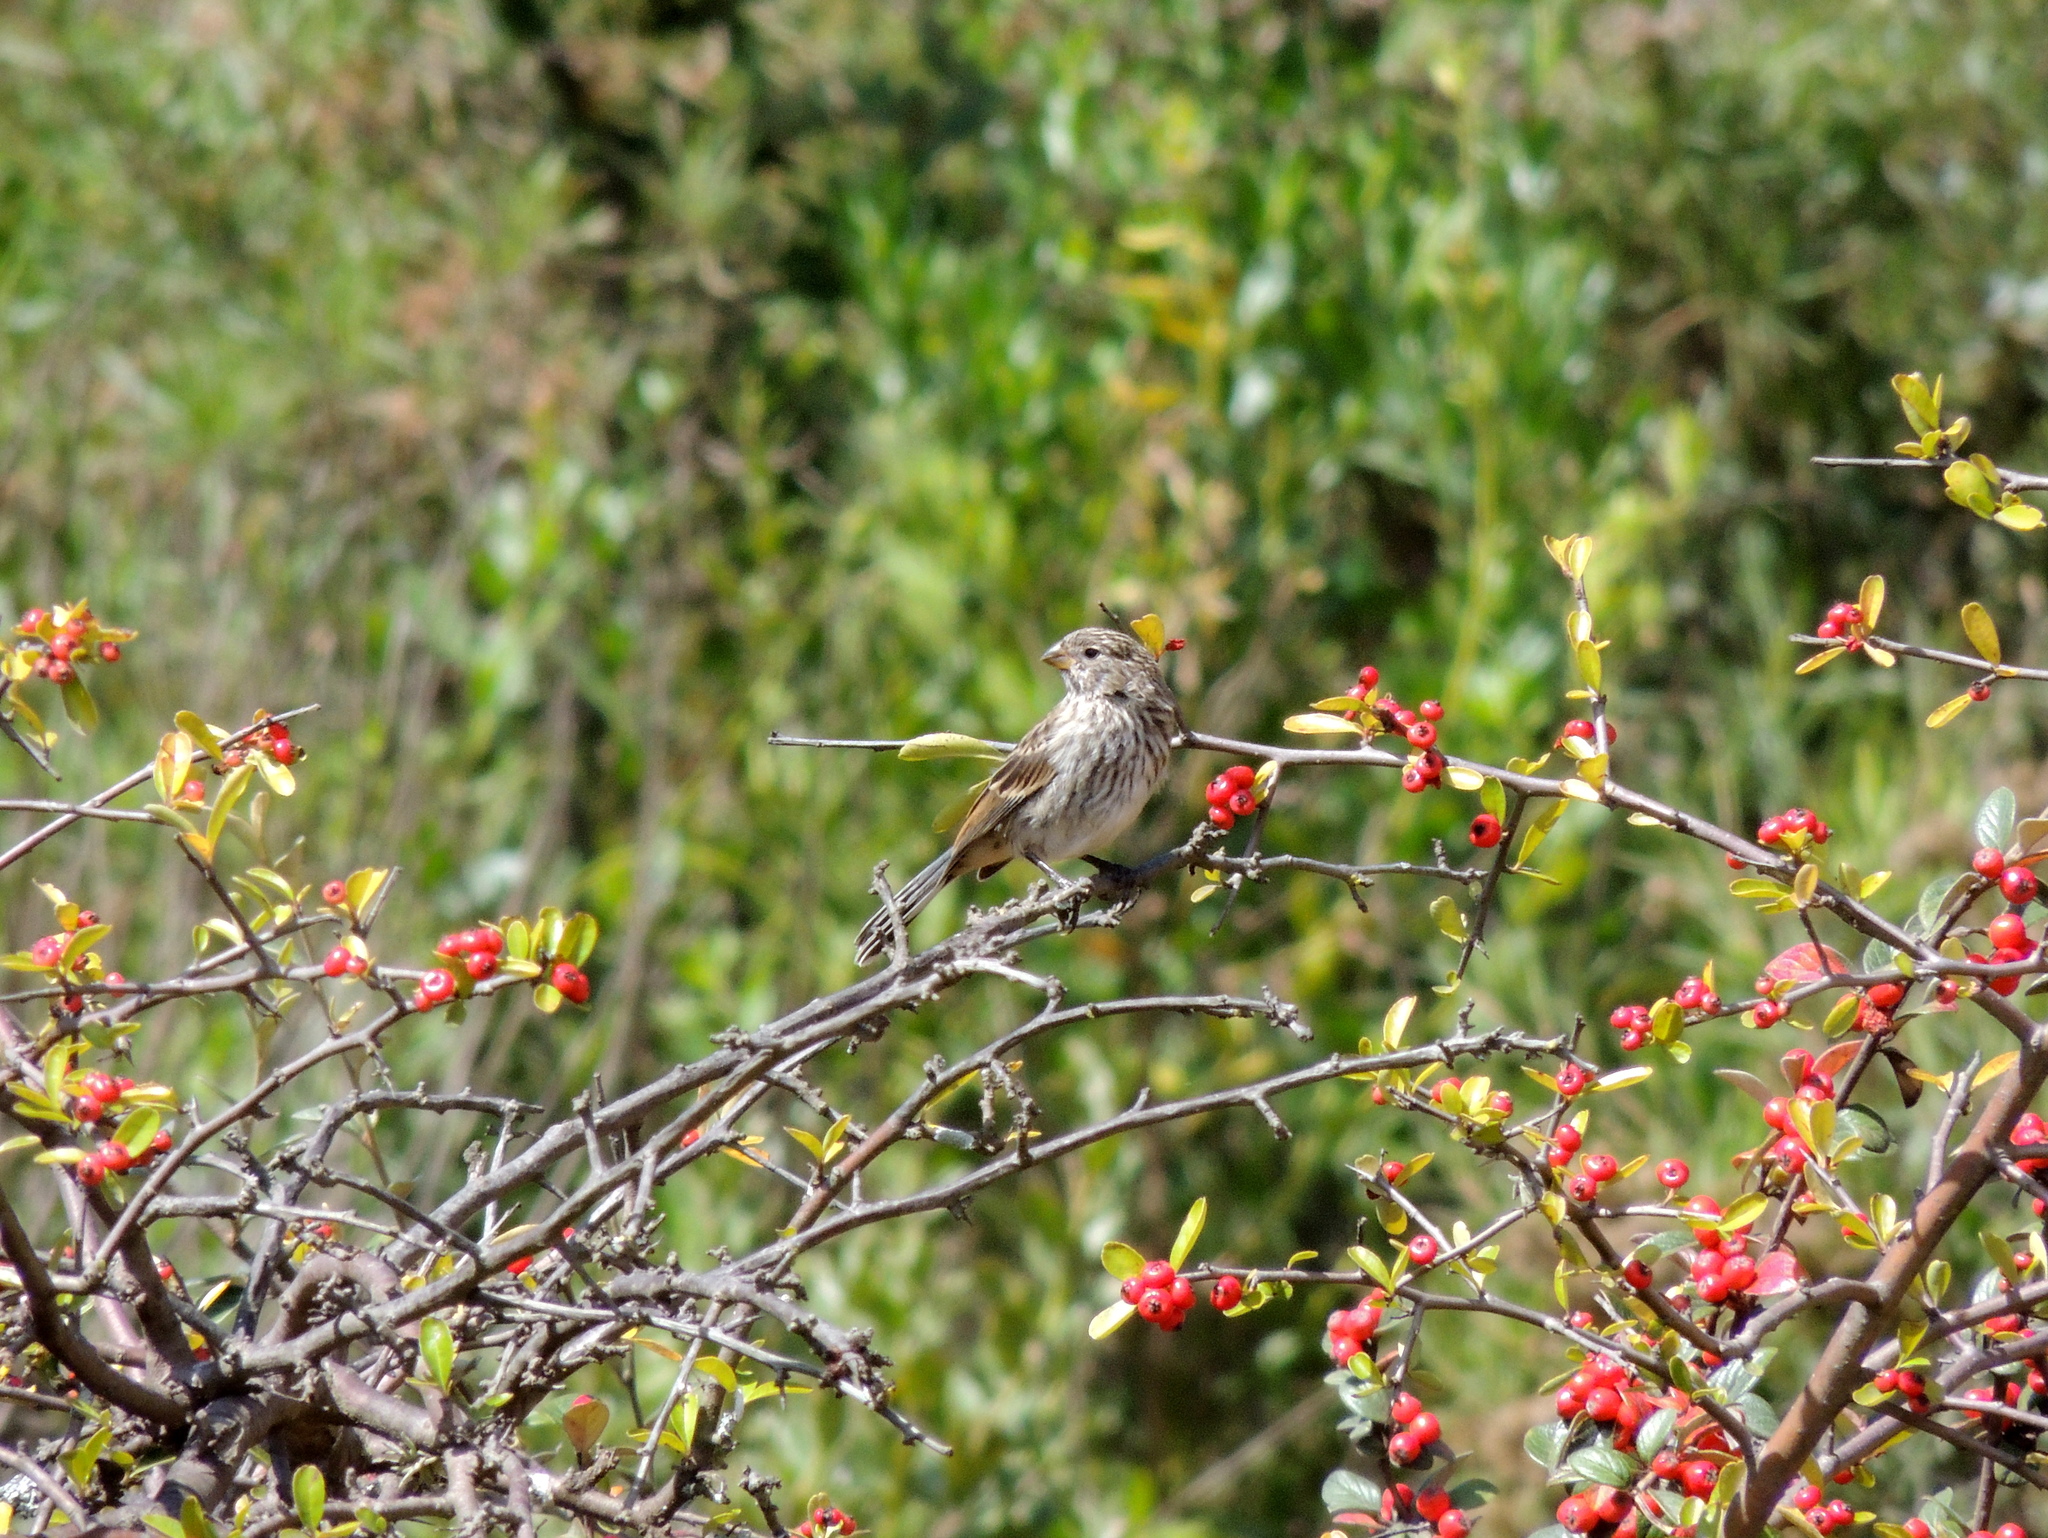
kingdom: Animalia
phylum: Chordata
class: Aves
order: Passeriformes
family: Thraupidae
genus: Catamenia
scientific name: Catamenia analis
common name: Band-tailed seedeater
